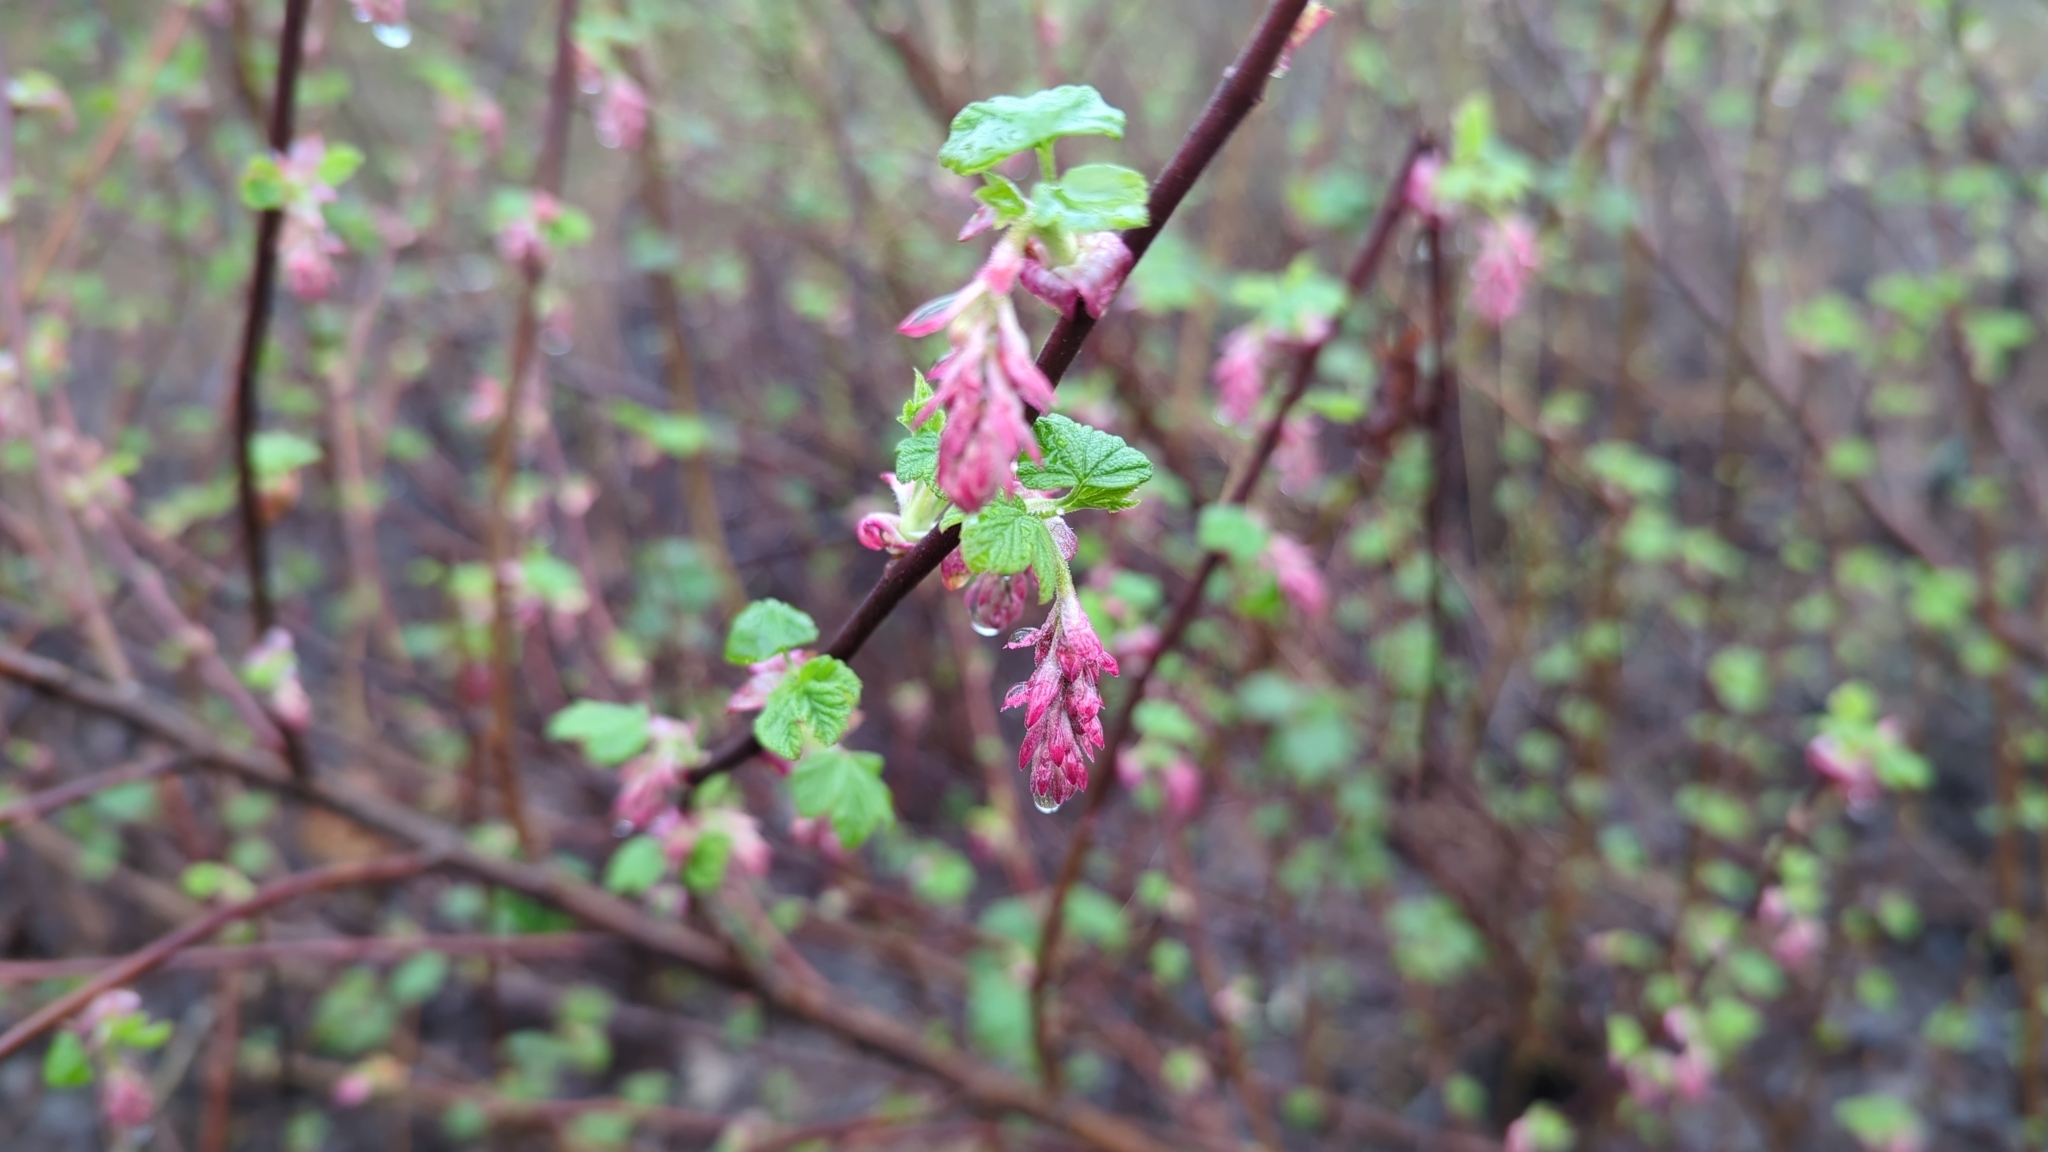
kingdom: Plantae
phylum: Tracheophyta
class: Magnoliopsida
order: Saxifragales
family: Grossulariaceae
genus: Ribes
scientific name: Ribes sanguineum
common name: Flowering currant
